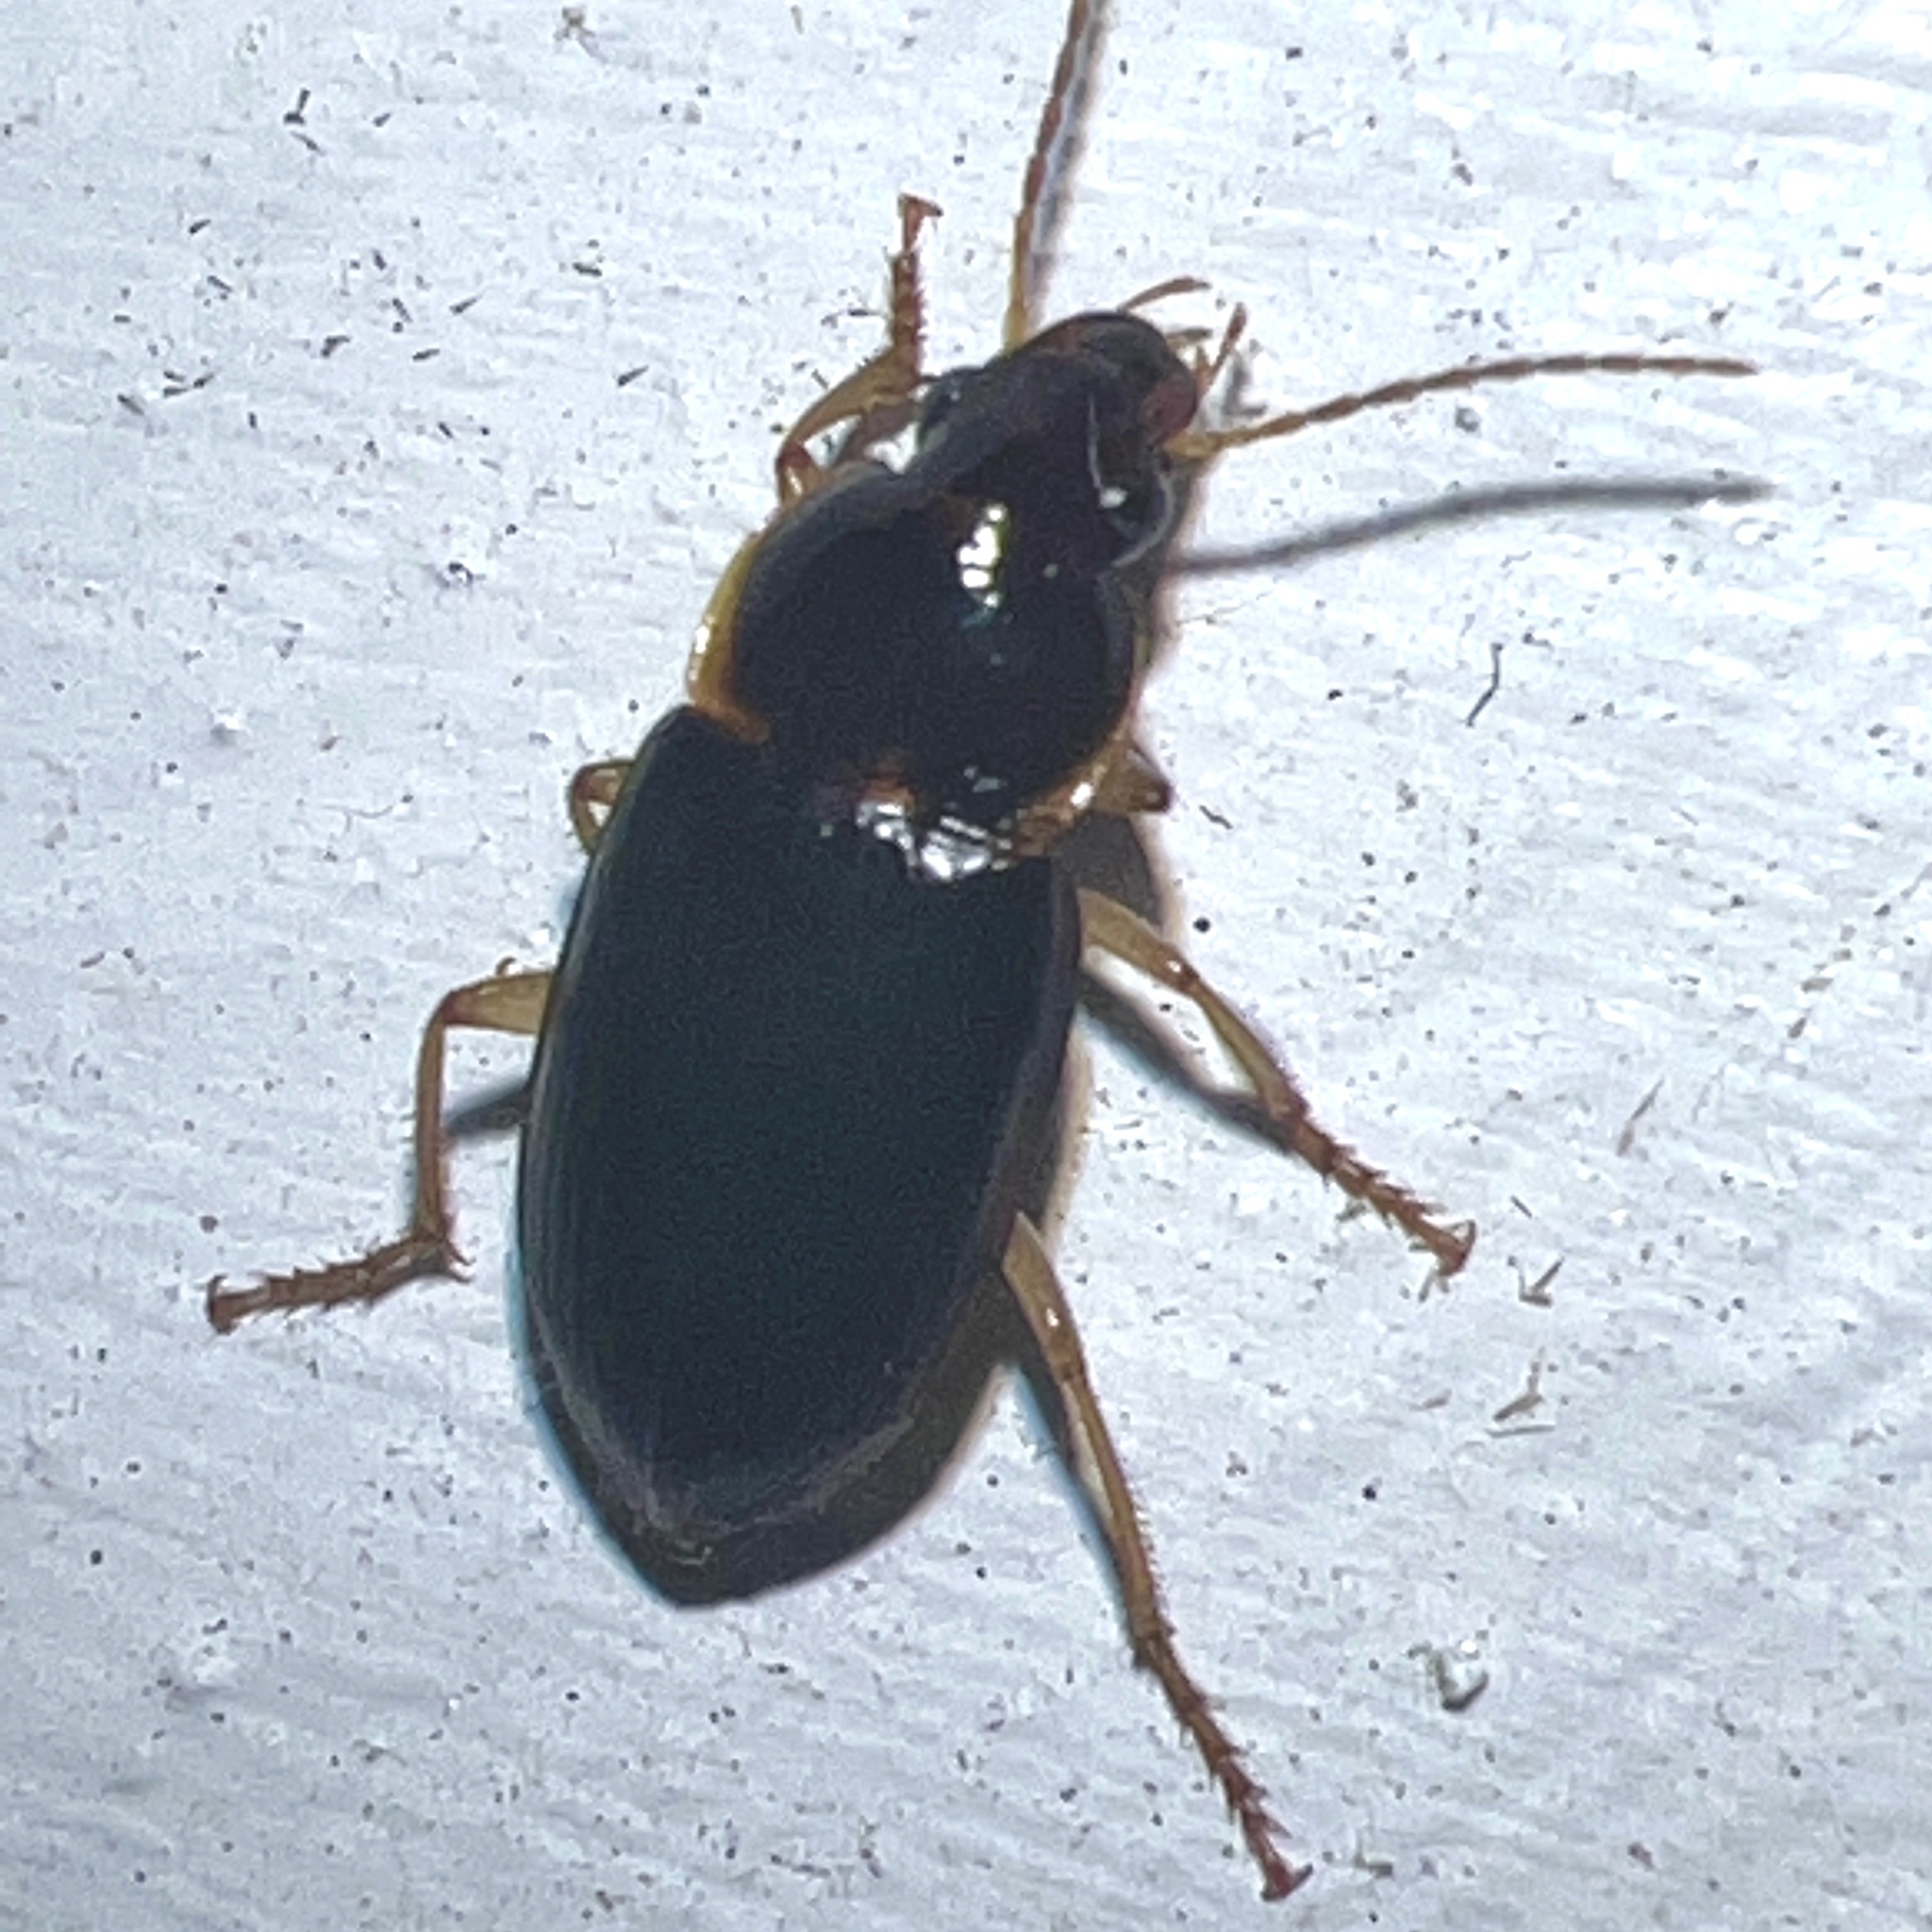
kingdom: Animalia
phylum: Arthropoda
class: Insecta
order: Coleoptera
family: Carabidae
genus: Notiobia
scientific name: Notiobia terminata
